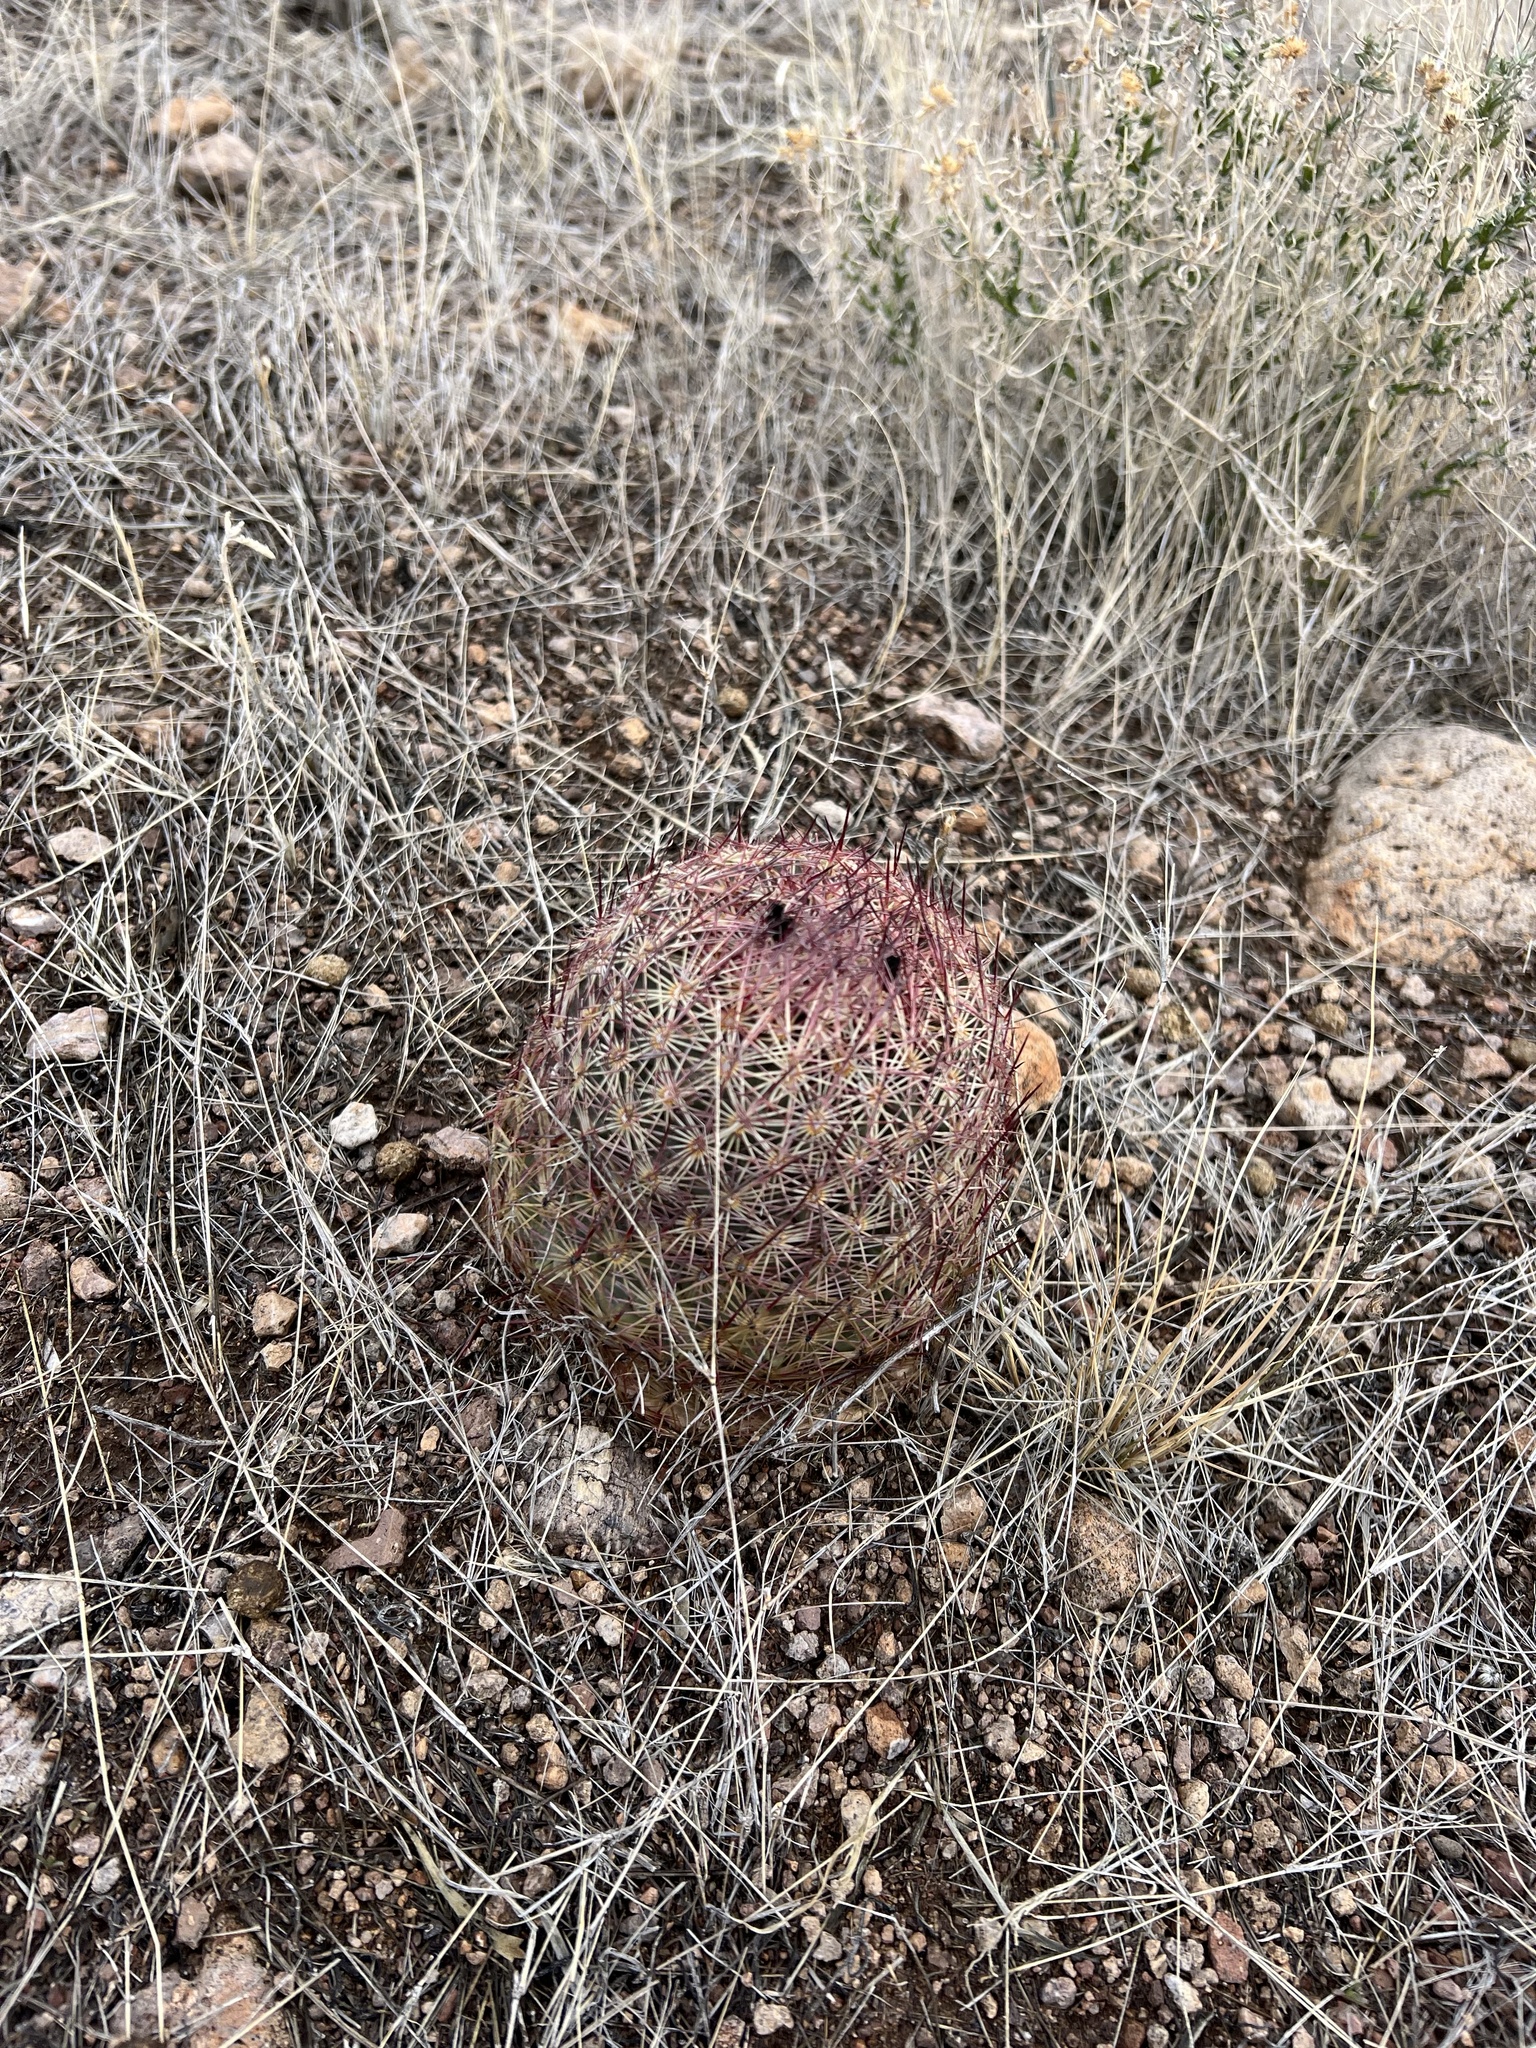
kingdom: Plantae
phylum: Tracheophyta
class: Magnoliopsida
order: Caryophyllales
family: Cactaceae
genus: Sclerocactus
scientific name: Sclerocactus johnsonii
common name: Eight-spine fishhook cactus
